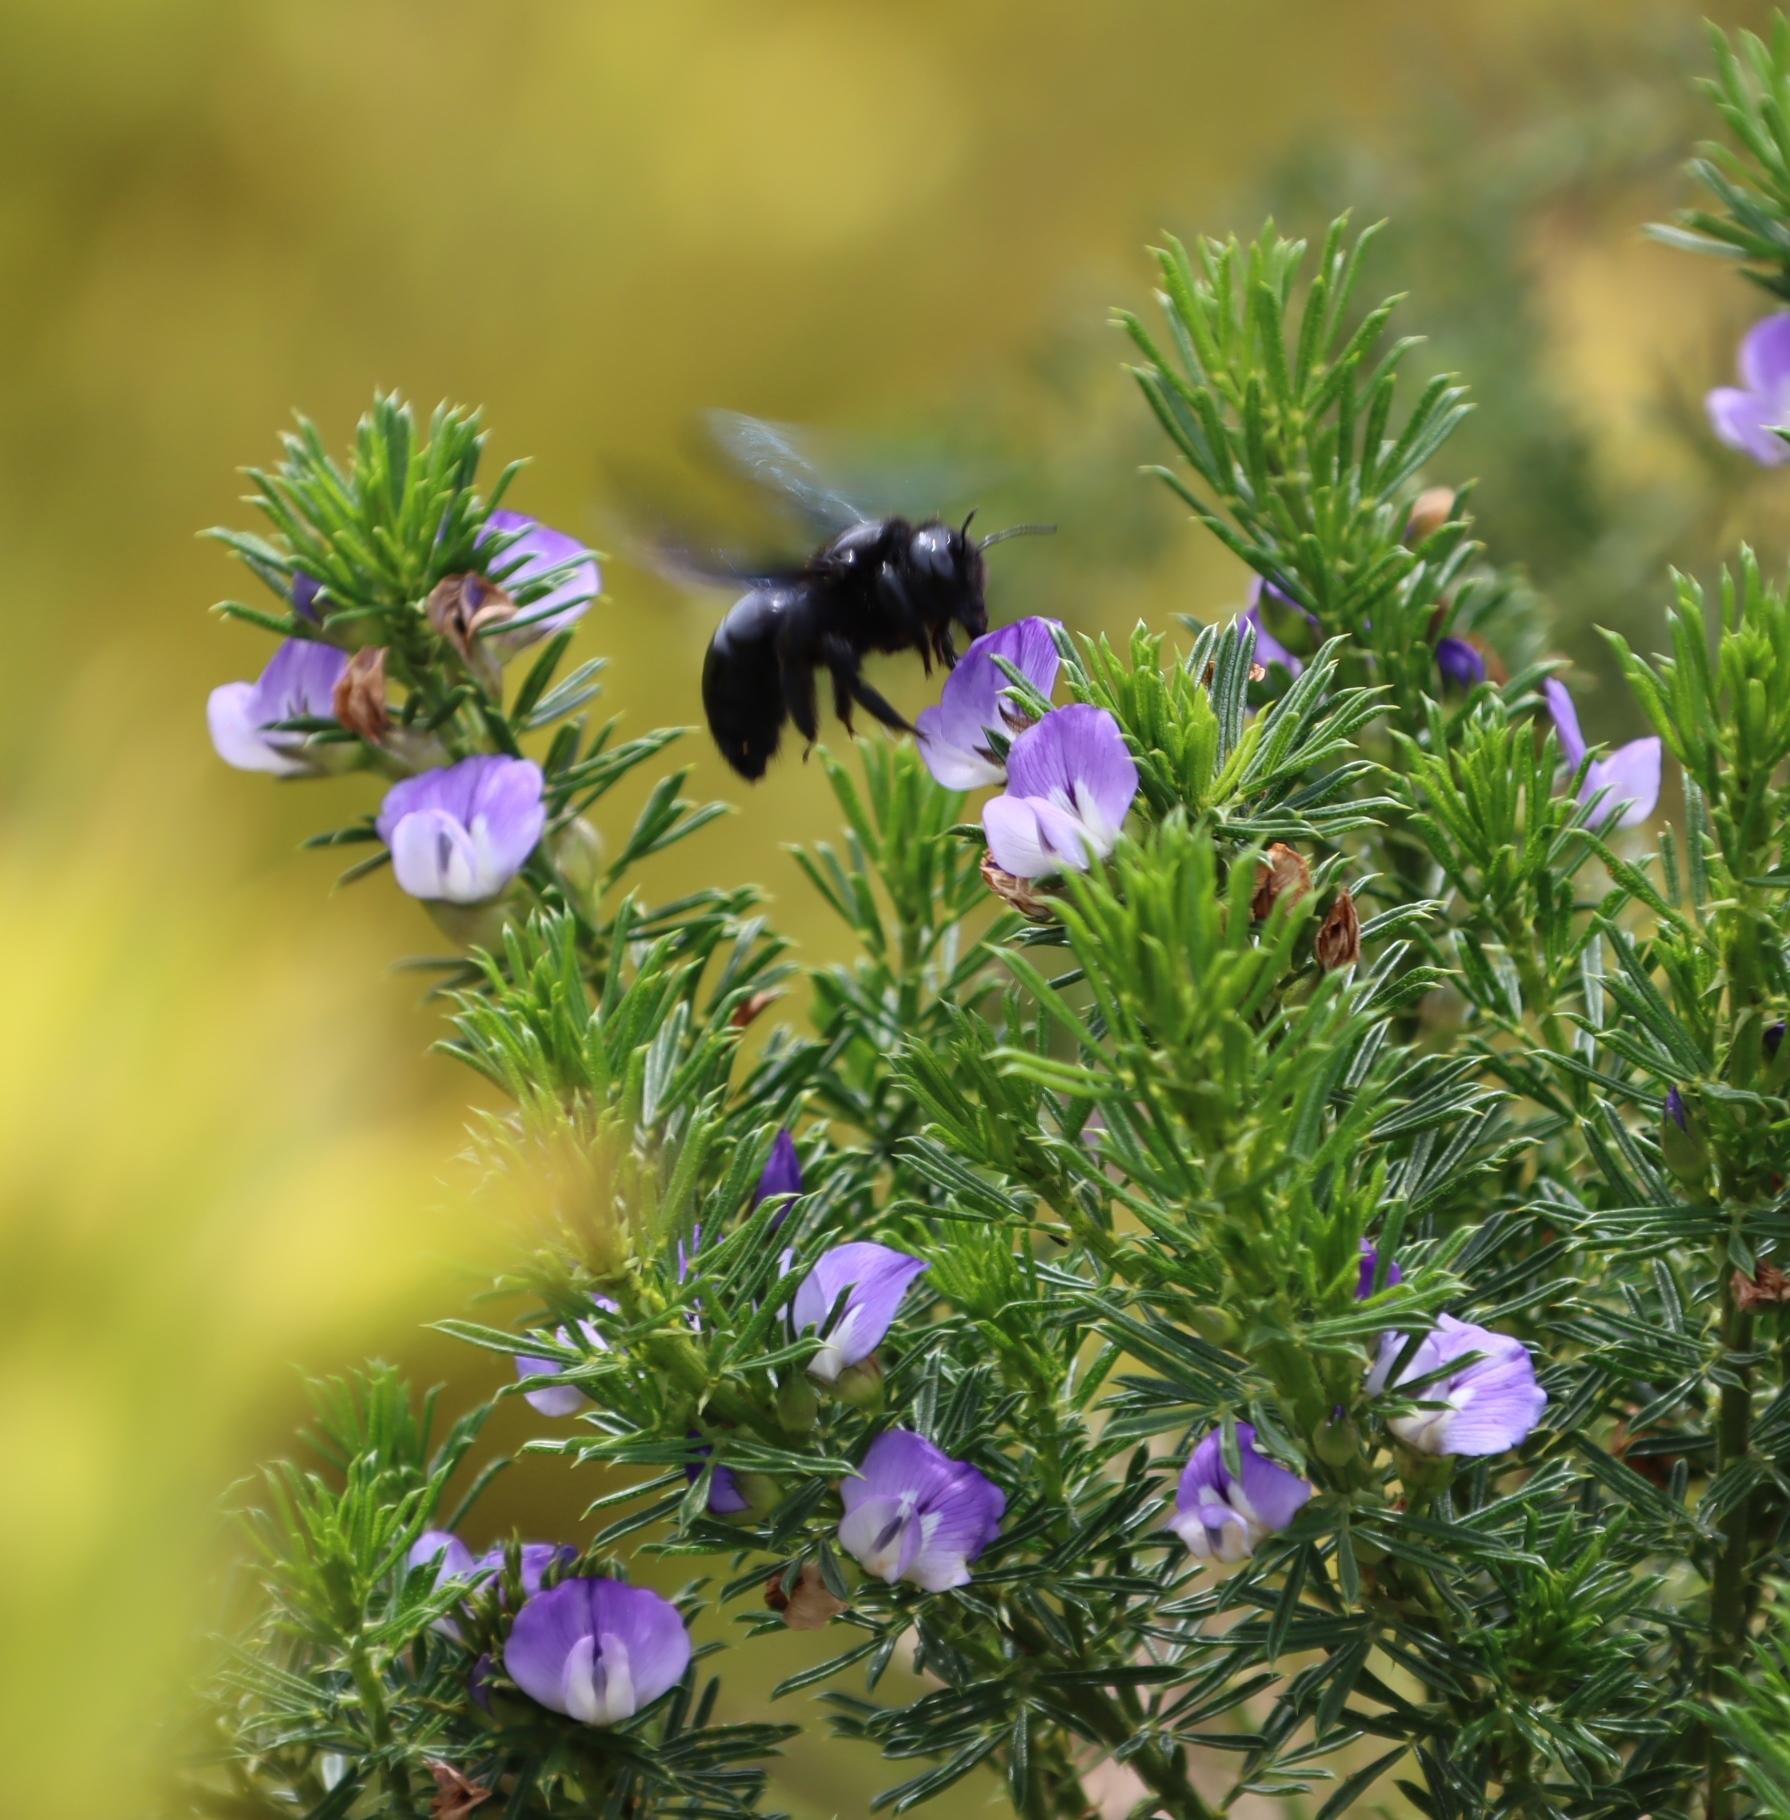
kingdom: Animalia
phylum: Arthropoda
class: Insecta
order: Hymenoptera
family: Apidae
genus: Xylocopa
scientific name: Xylocopa capitata
